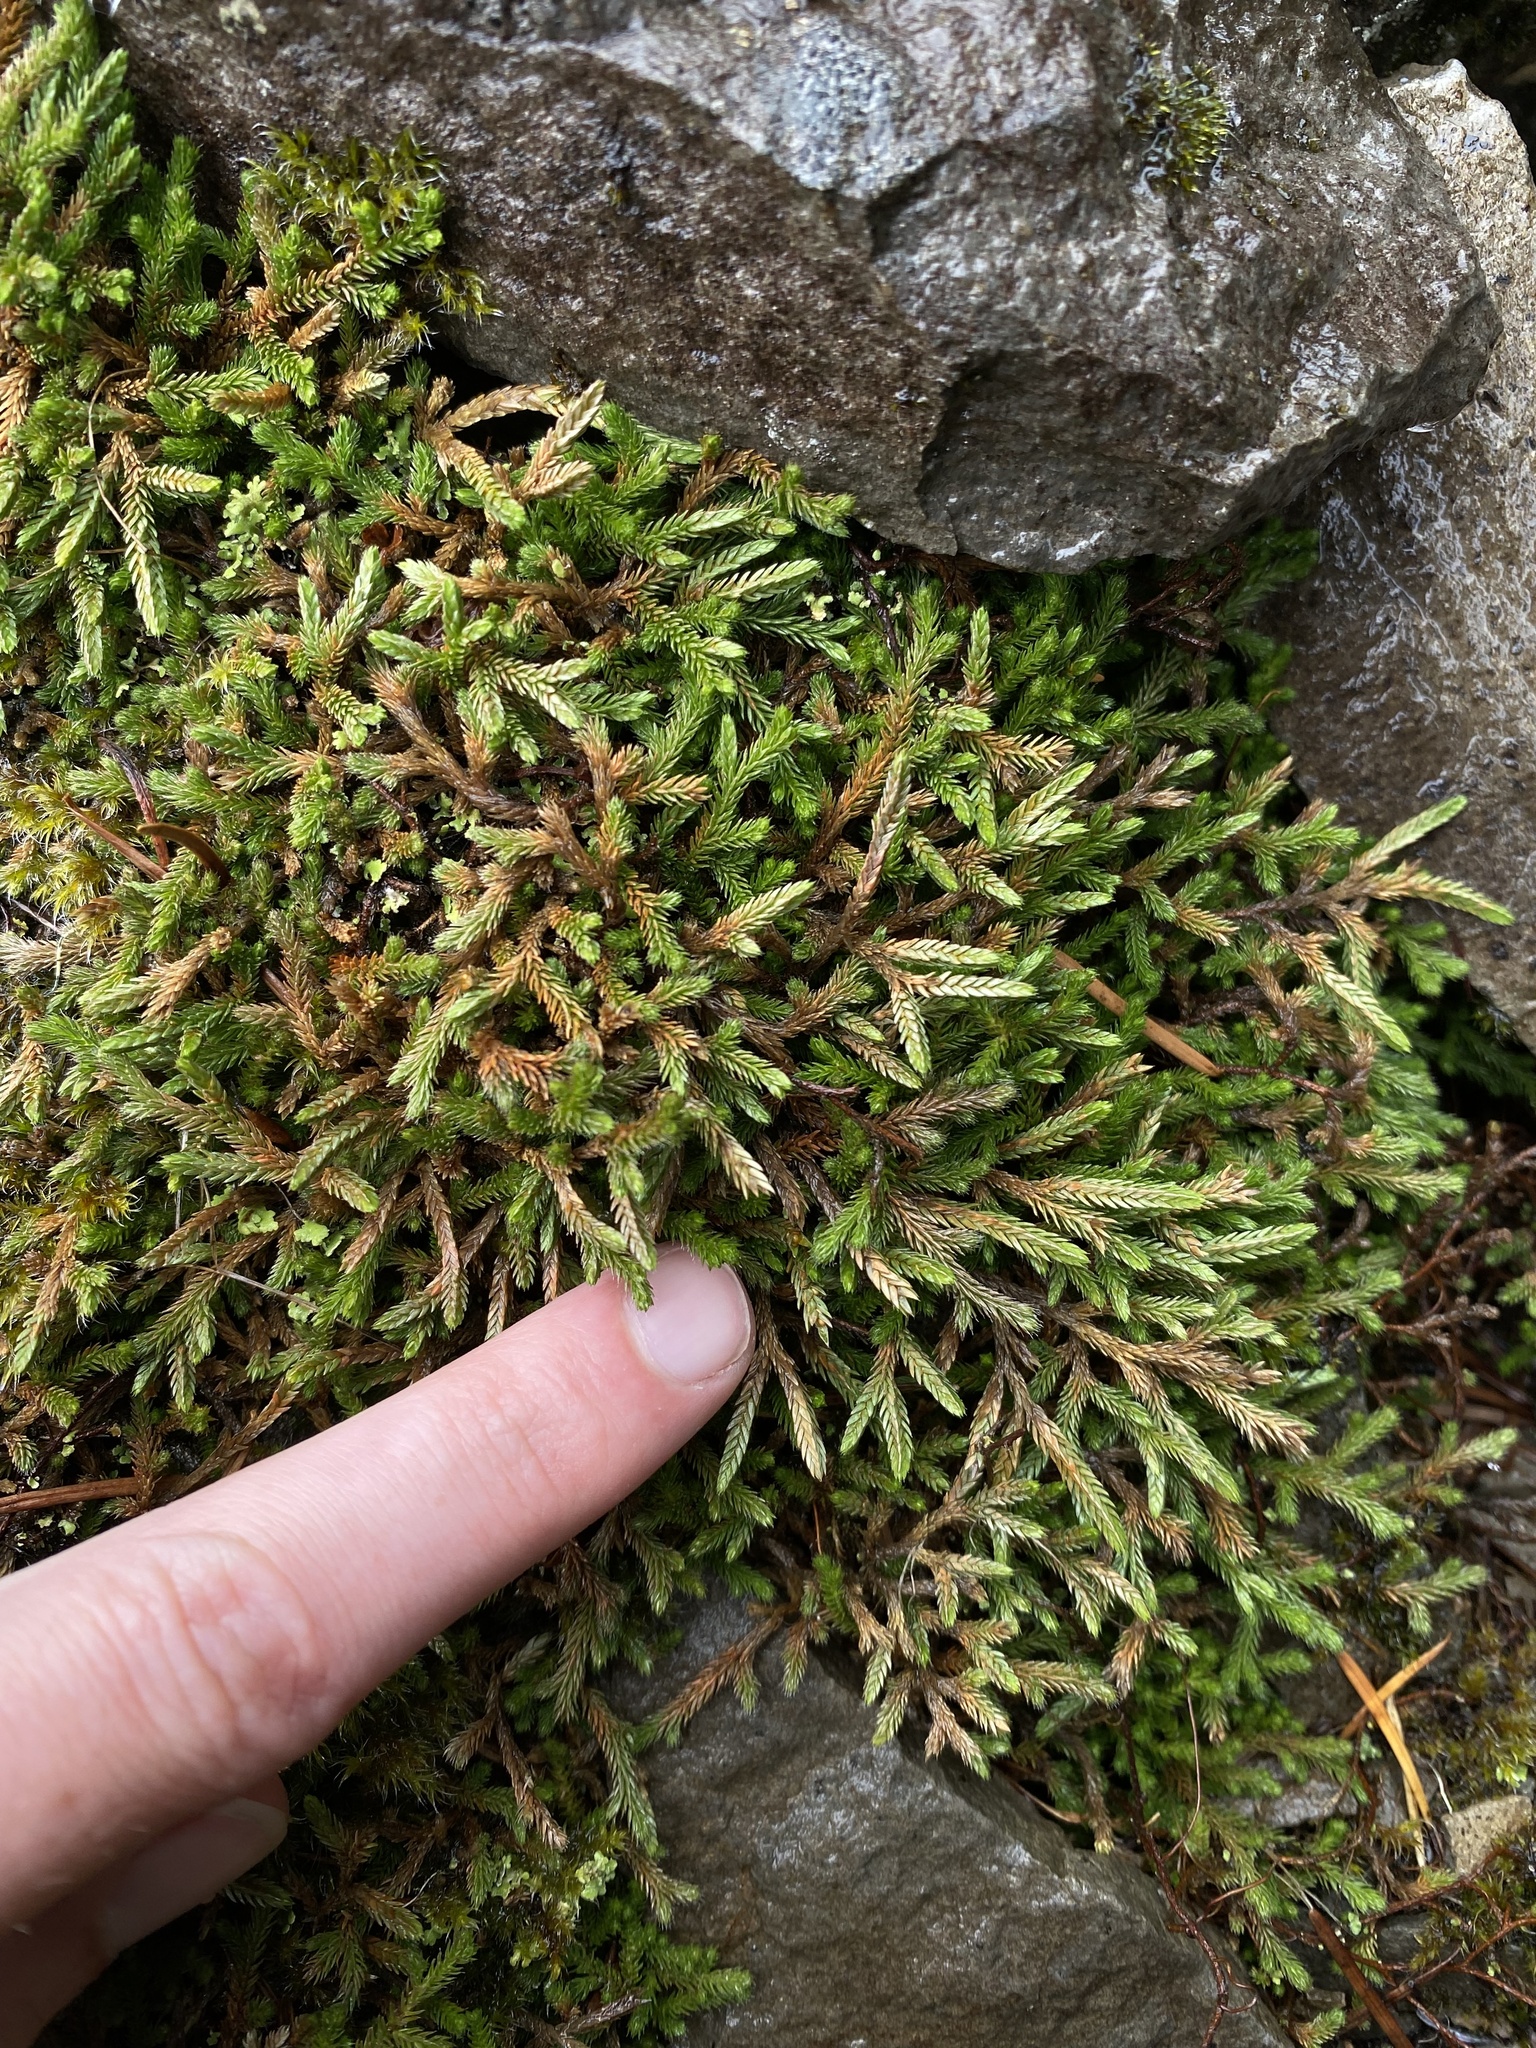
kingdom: Plantae
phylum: Tracheophyta
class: Lycopodiopsida
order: Selaginellales
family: Selaginellaceae
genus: Selaginella
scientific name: Selaginella wallacei
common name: Wallace's selaginella
